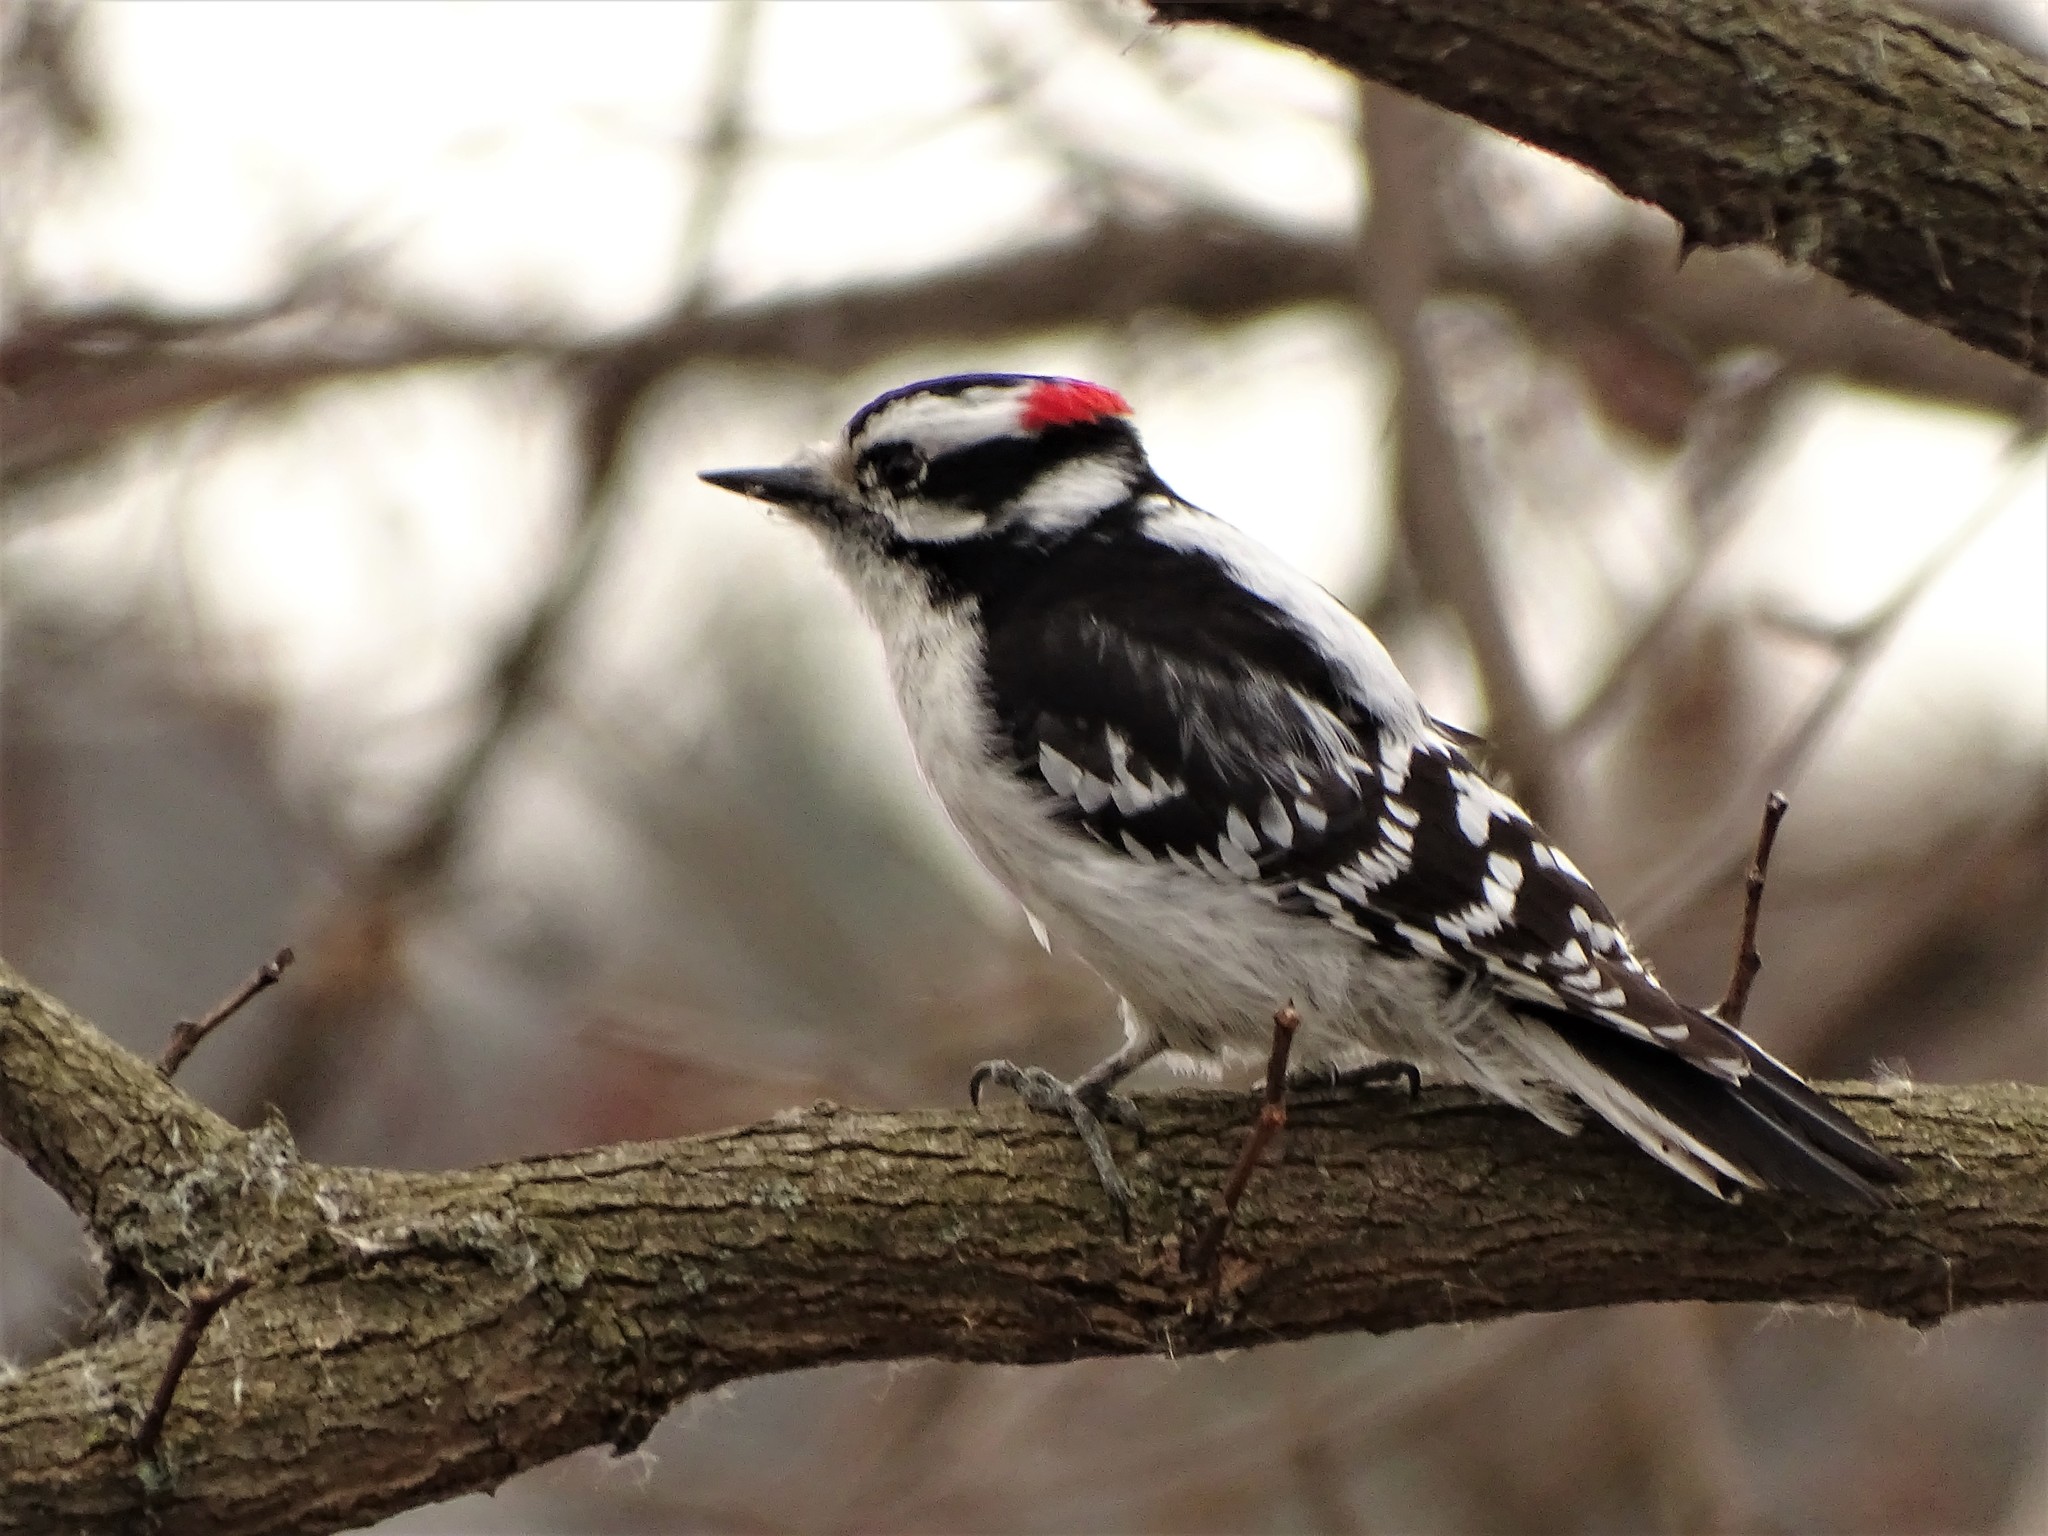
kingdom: Animalia
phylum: Chordata
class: Aves
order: Piciformes
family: Picidae
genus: Dryobates
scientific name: Dryobates pubescens
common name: Downy woodpecker
